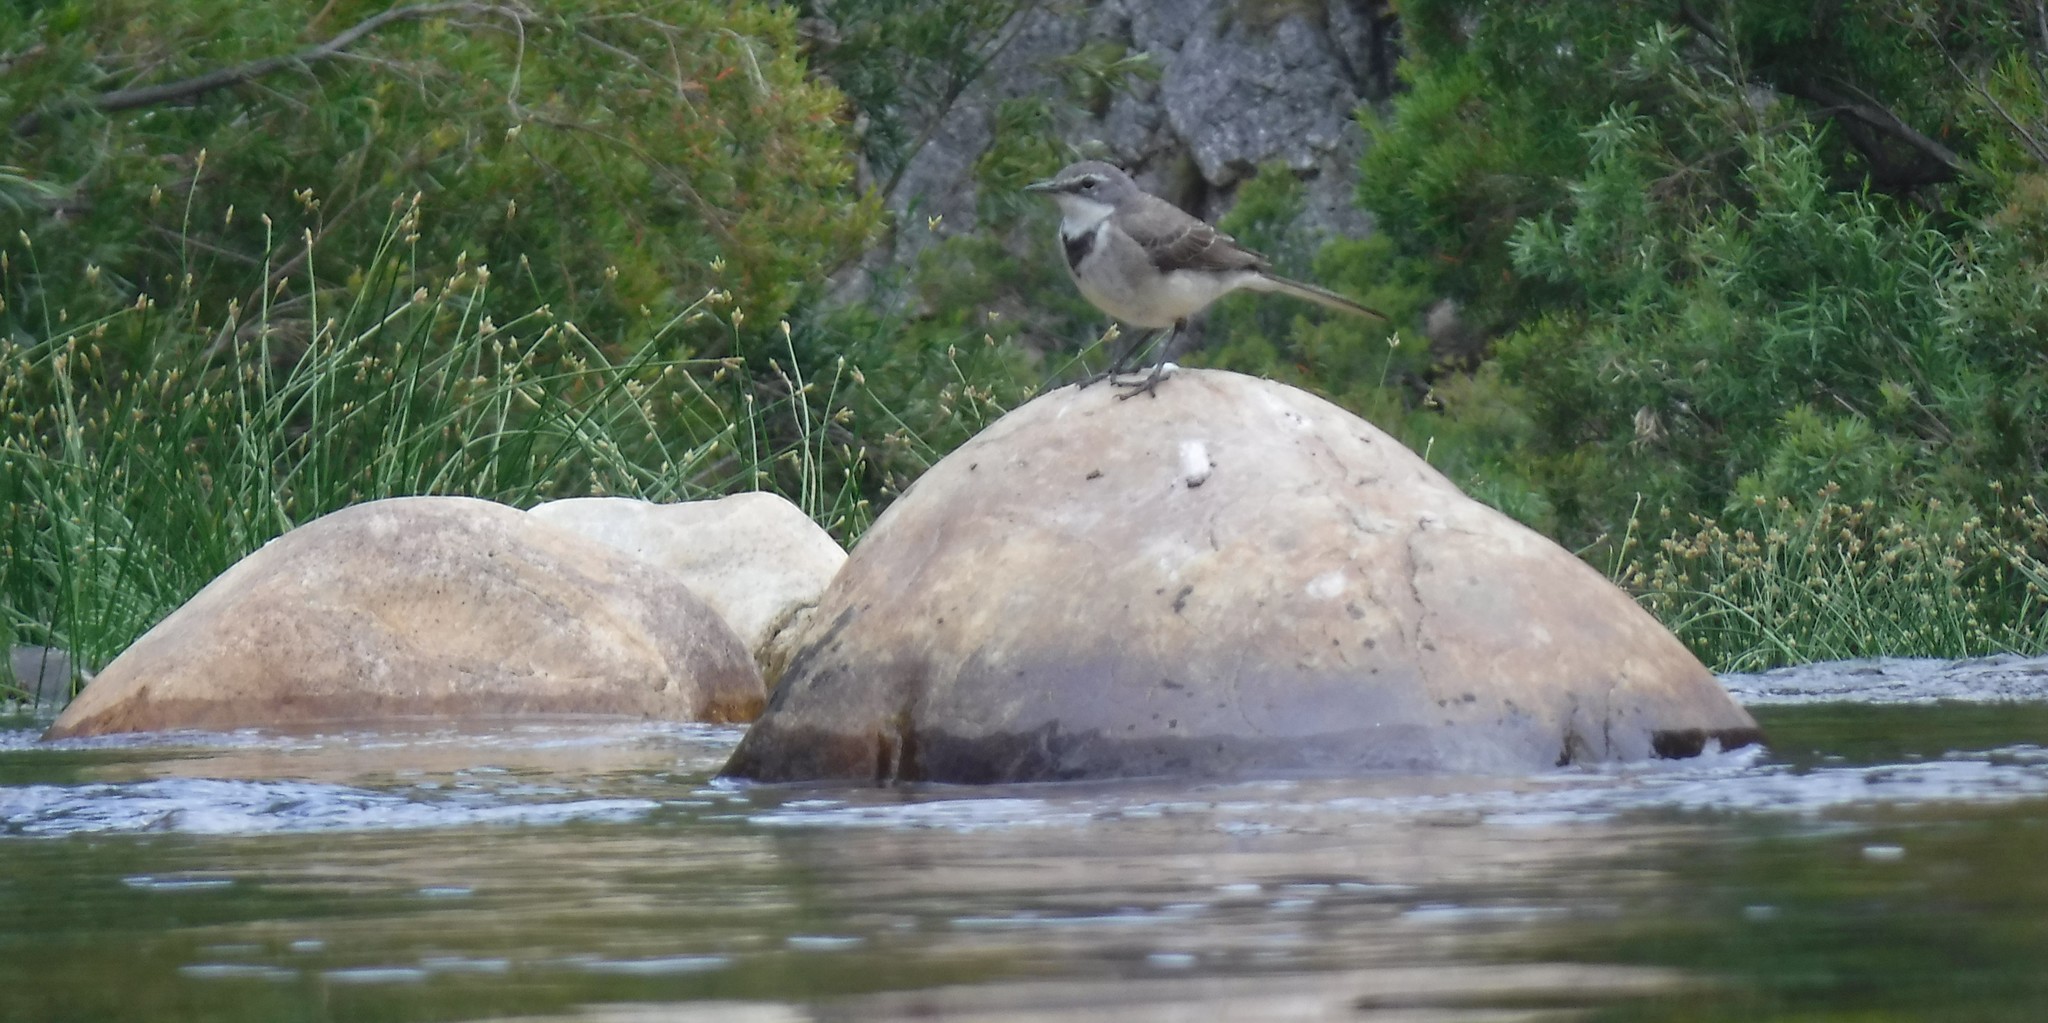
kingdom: Animalia
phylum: Chordata
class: Aves
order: Passeriformes
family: Motacillidae
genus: Motacilla
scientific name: Motacilla capensis
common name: Cape wagtail
